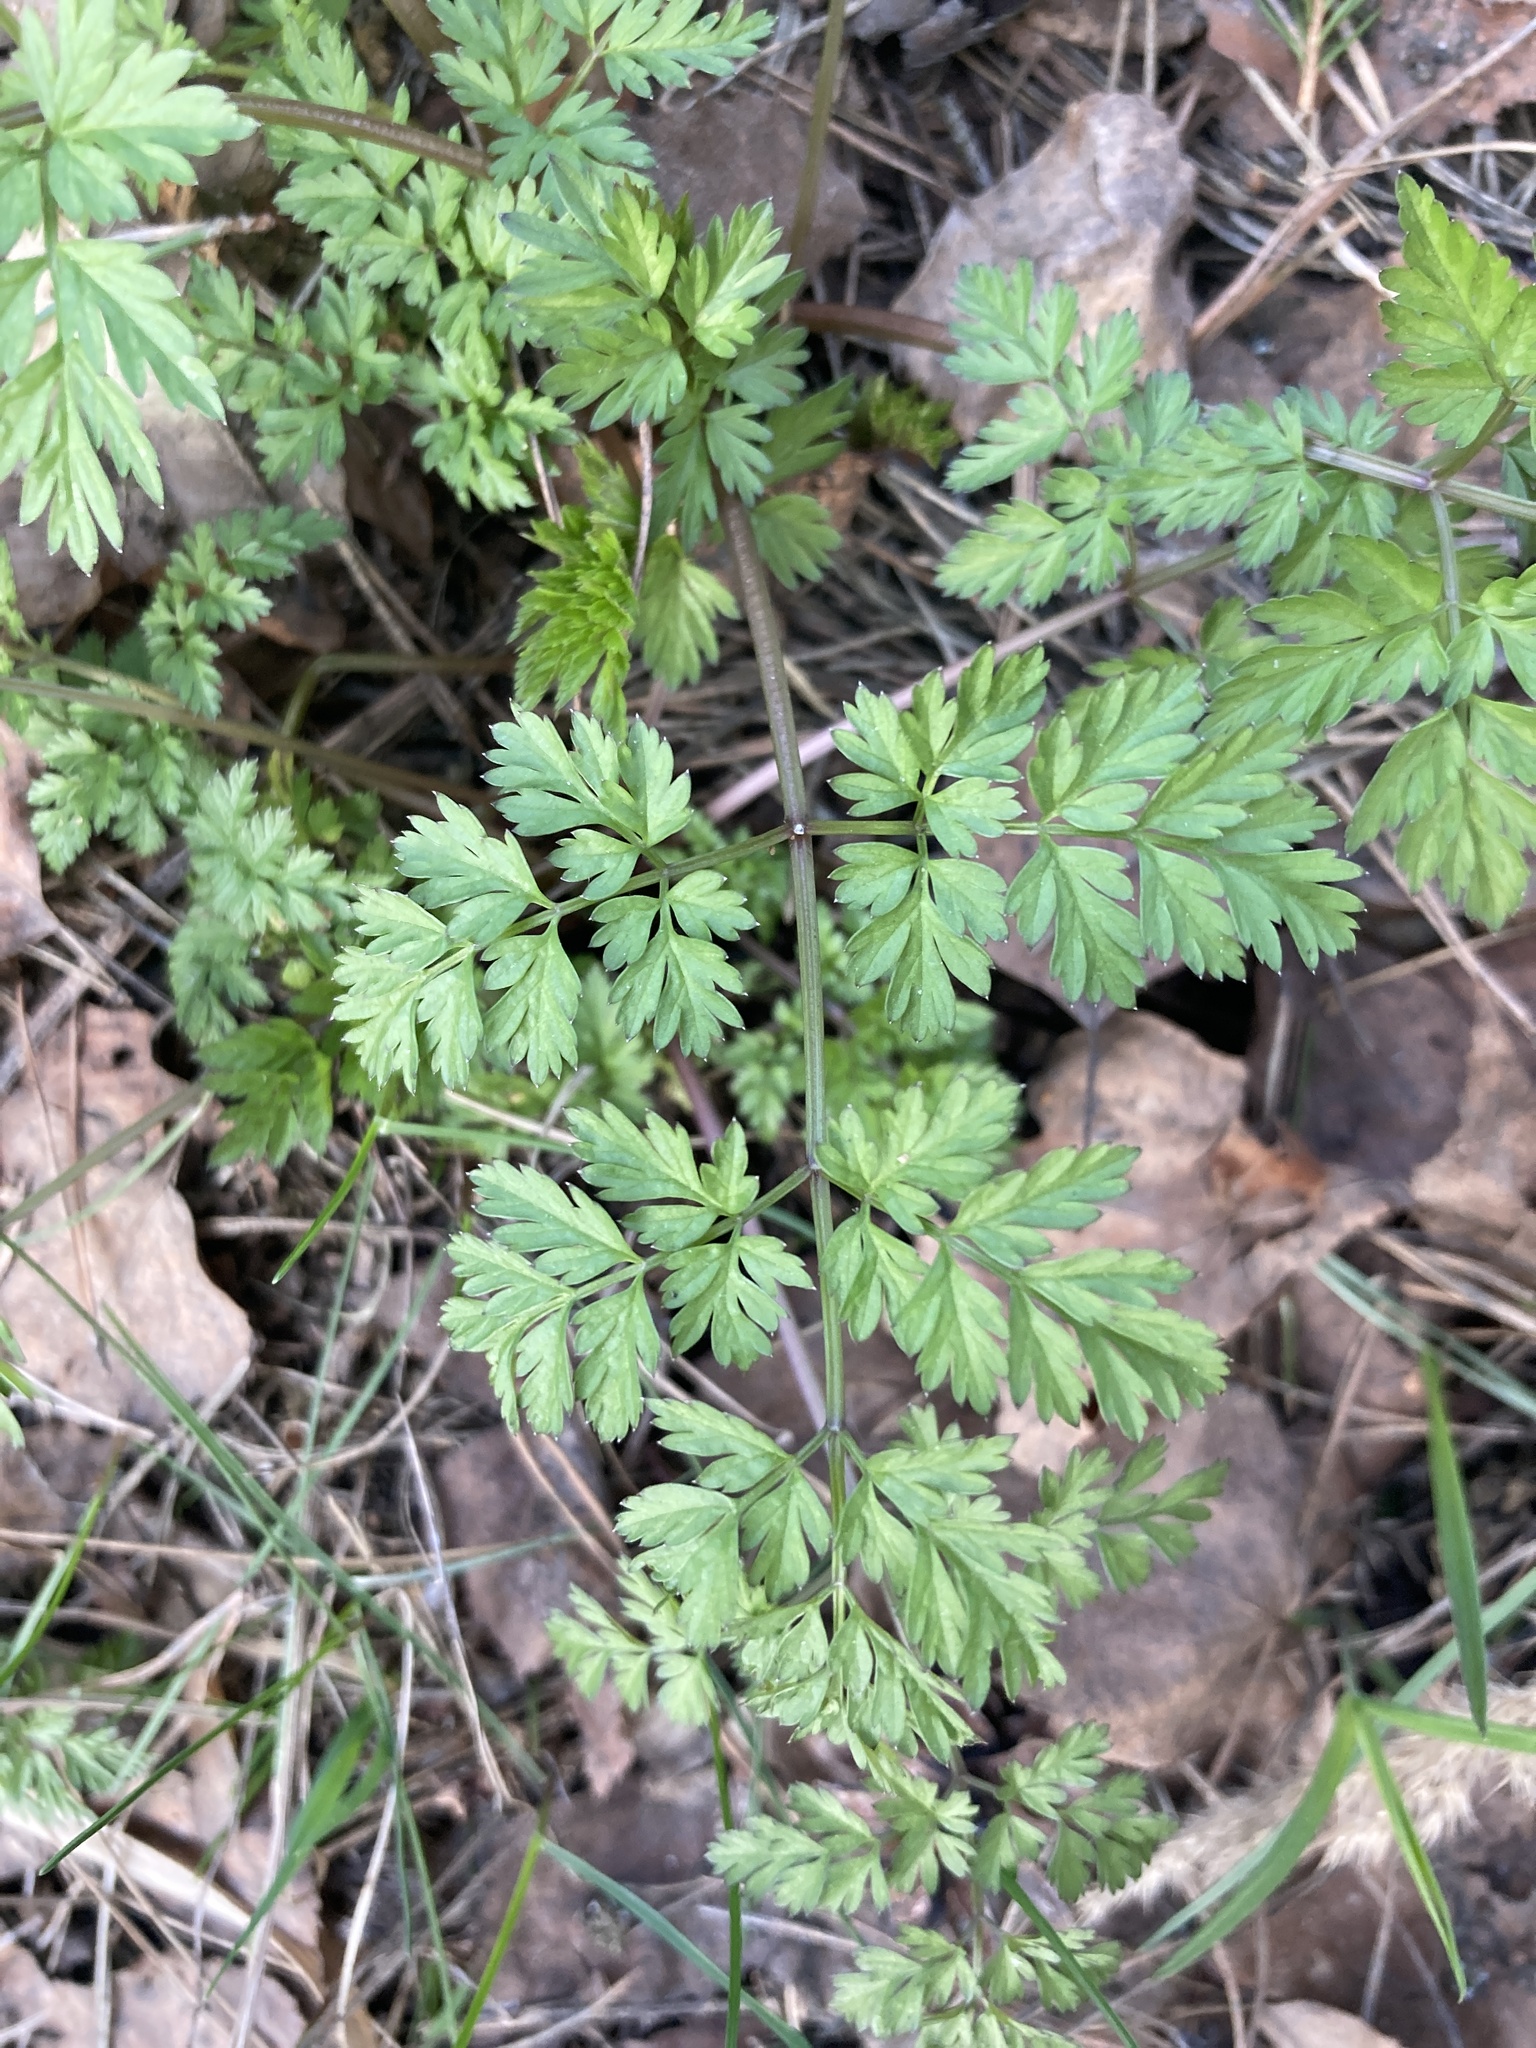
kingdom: Plantae
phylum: Tracheophyta
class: Magnoliopsida
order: Apiales
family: Apiaceae
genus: Anthriscus
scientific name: Anthriscus sylvestris
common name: Cow parsley
